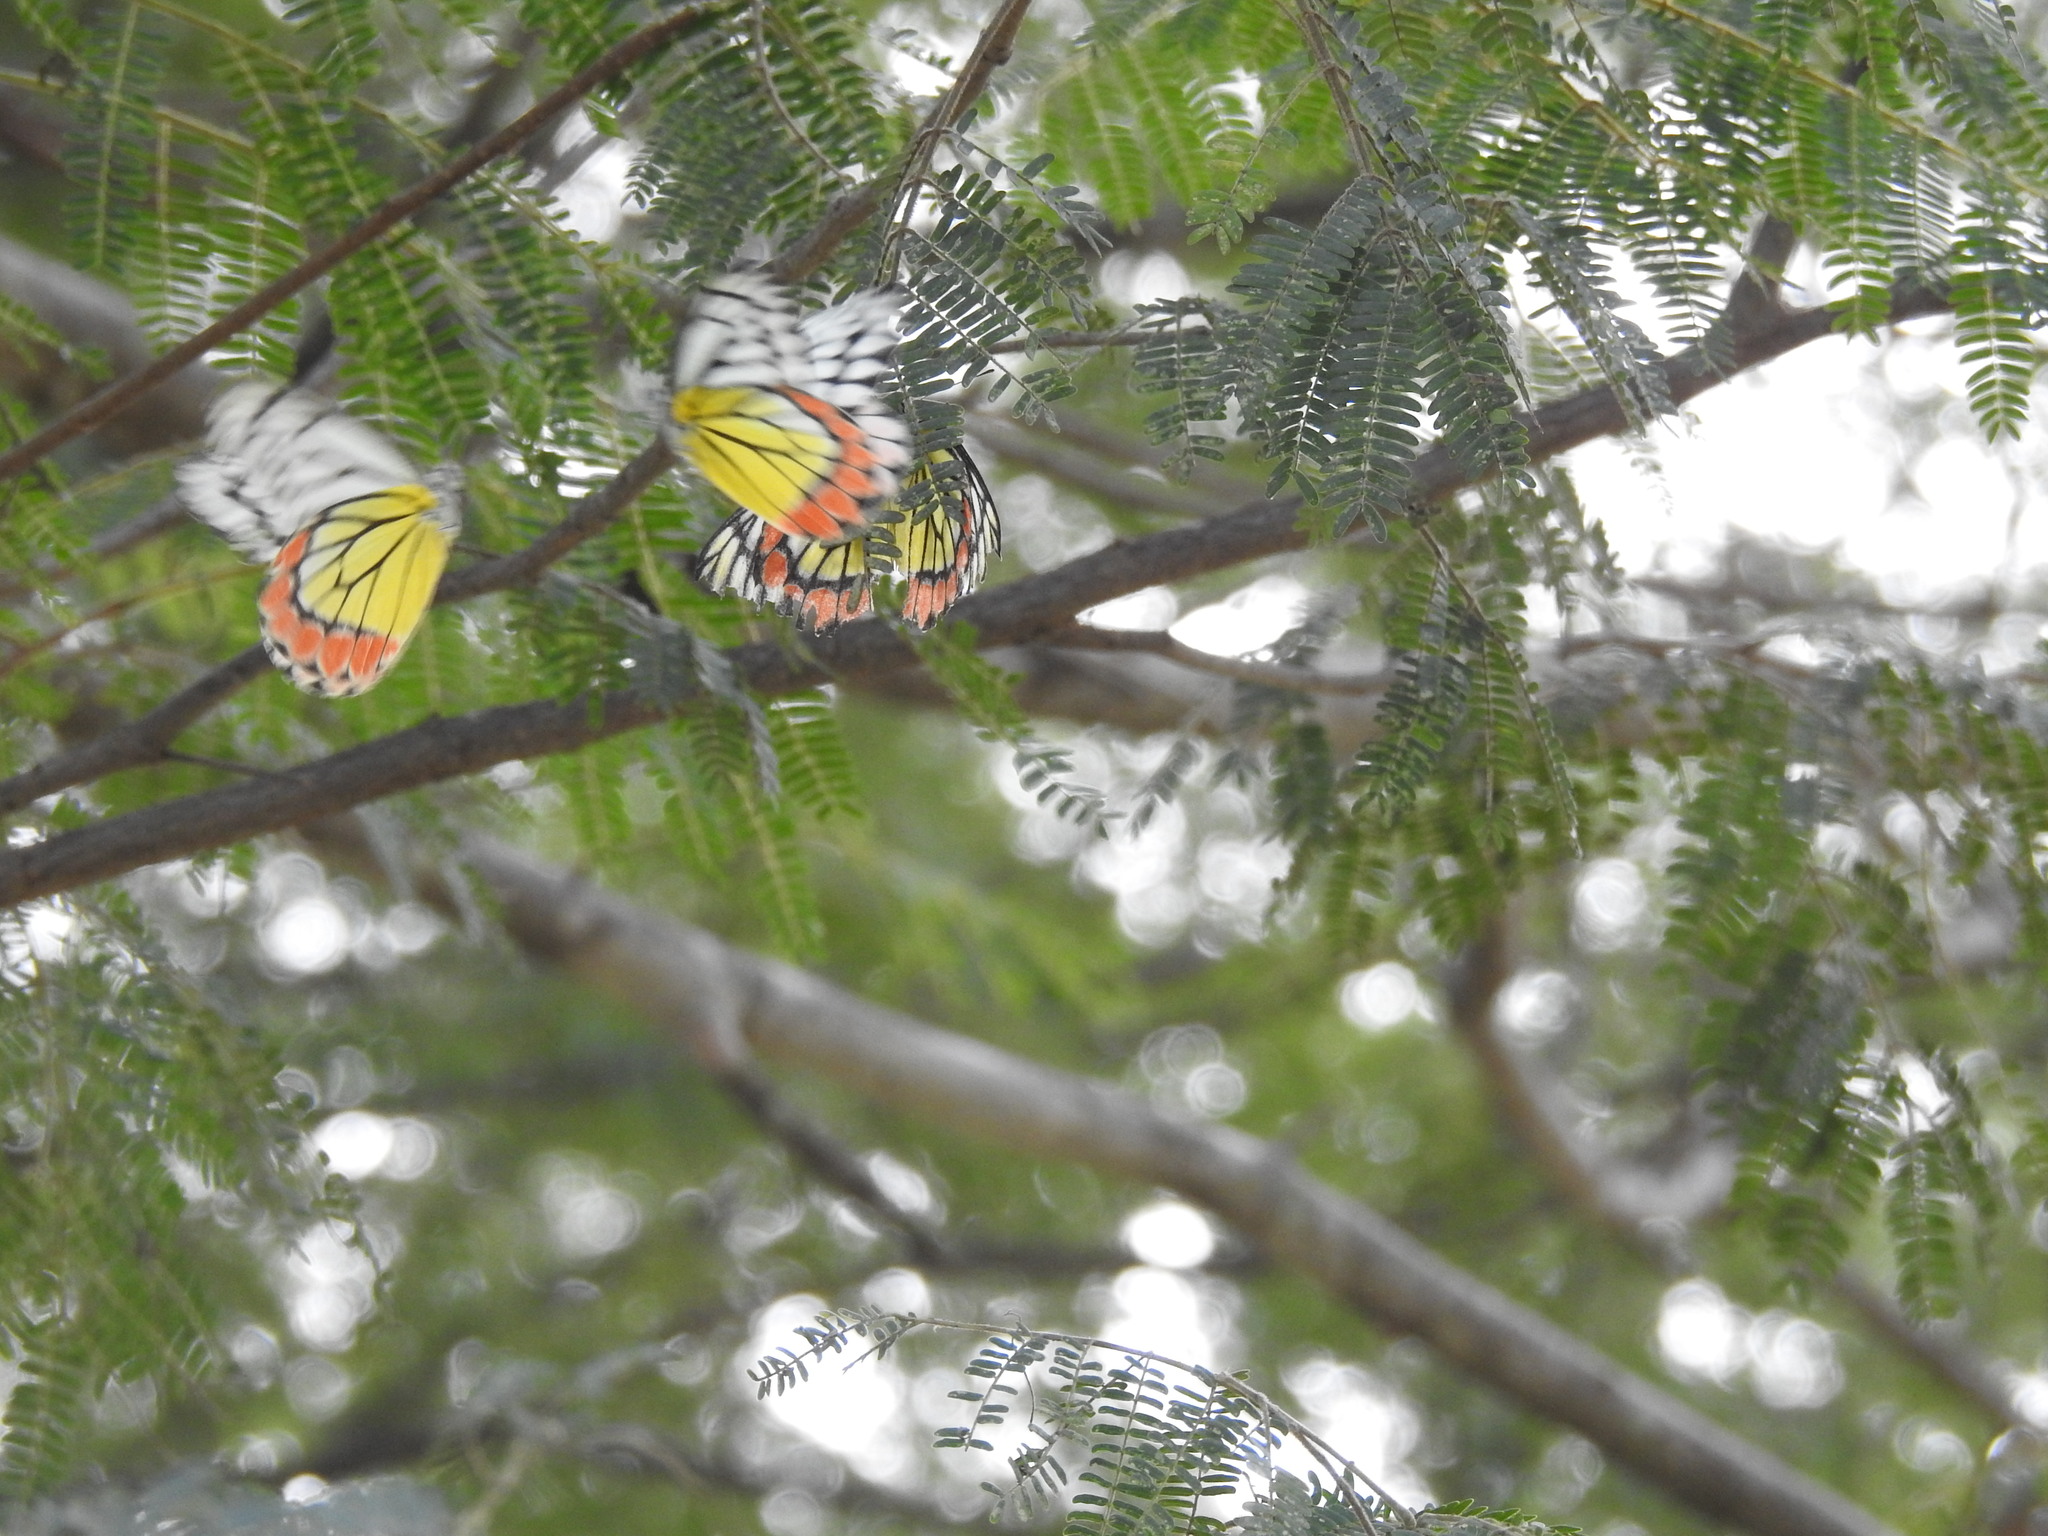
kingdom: Animalia
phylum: Arthropoda
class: Insecta
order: Lepidoptera
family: Pieridae
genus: Delias
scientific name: Delias eucharis
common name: Common jezebel
